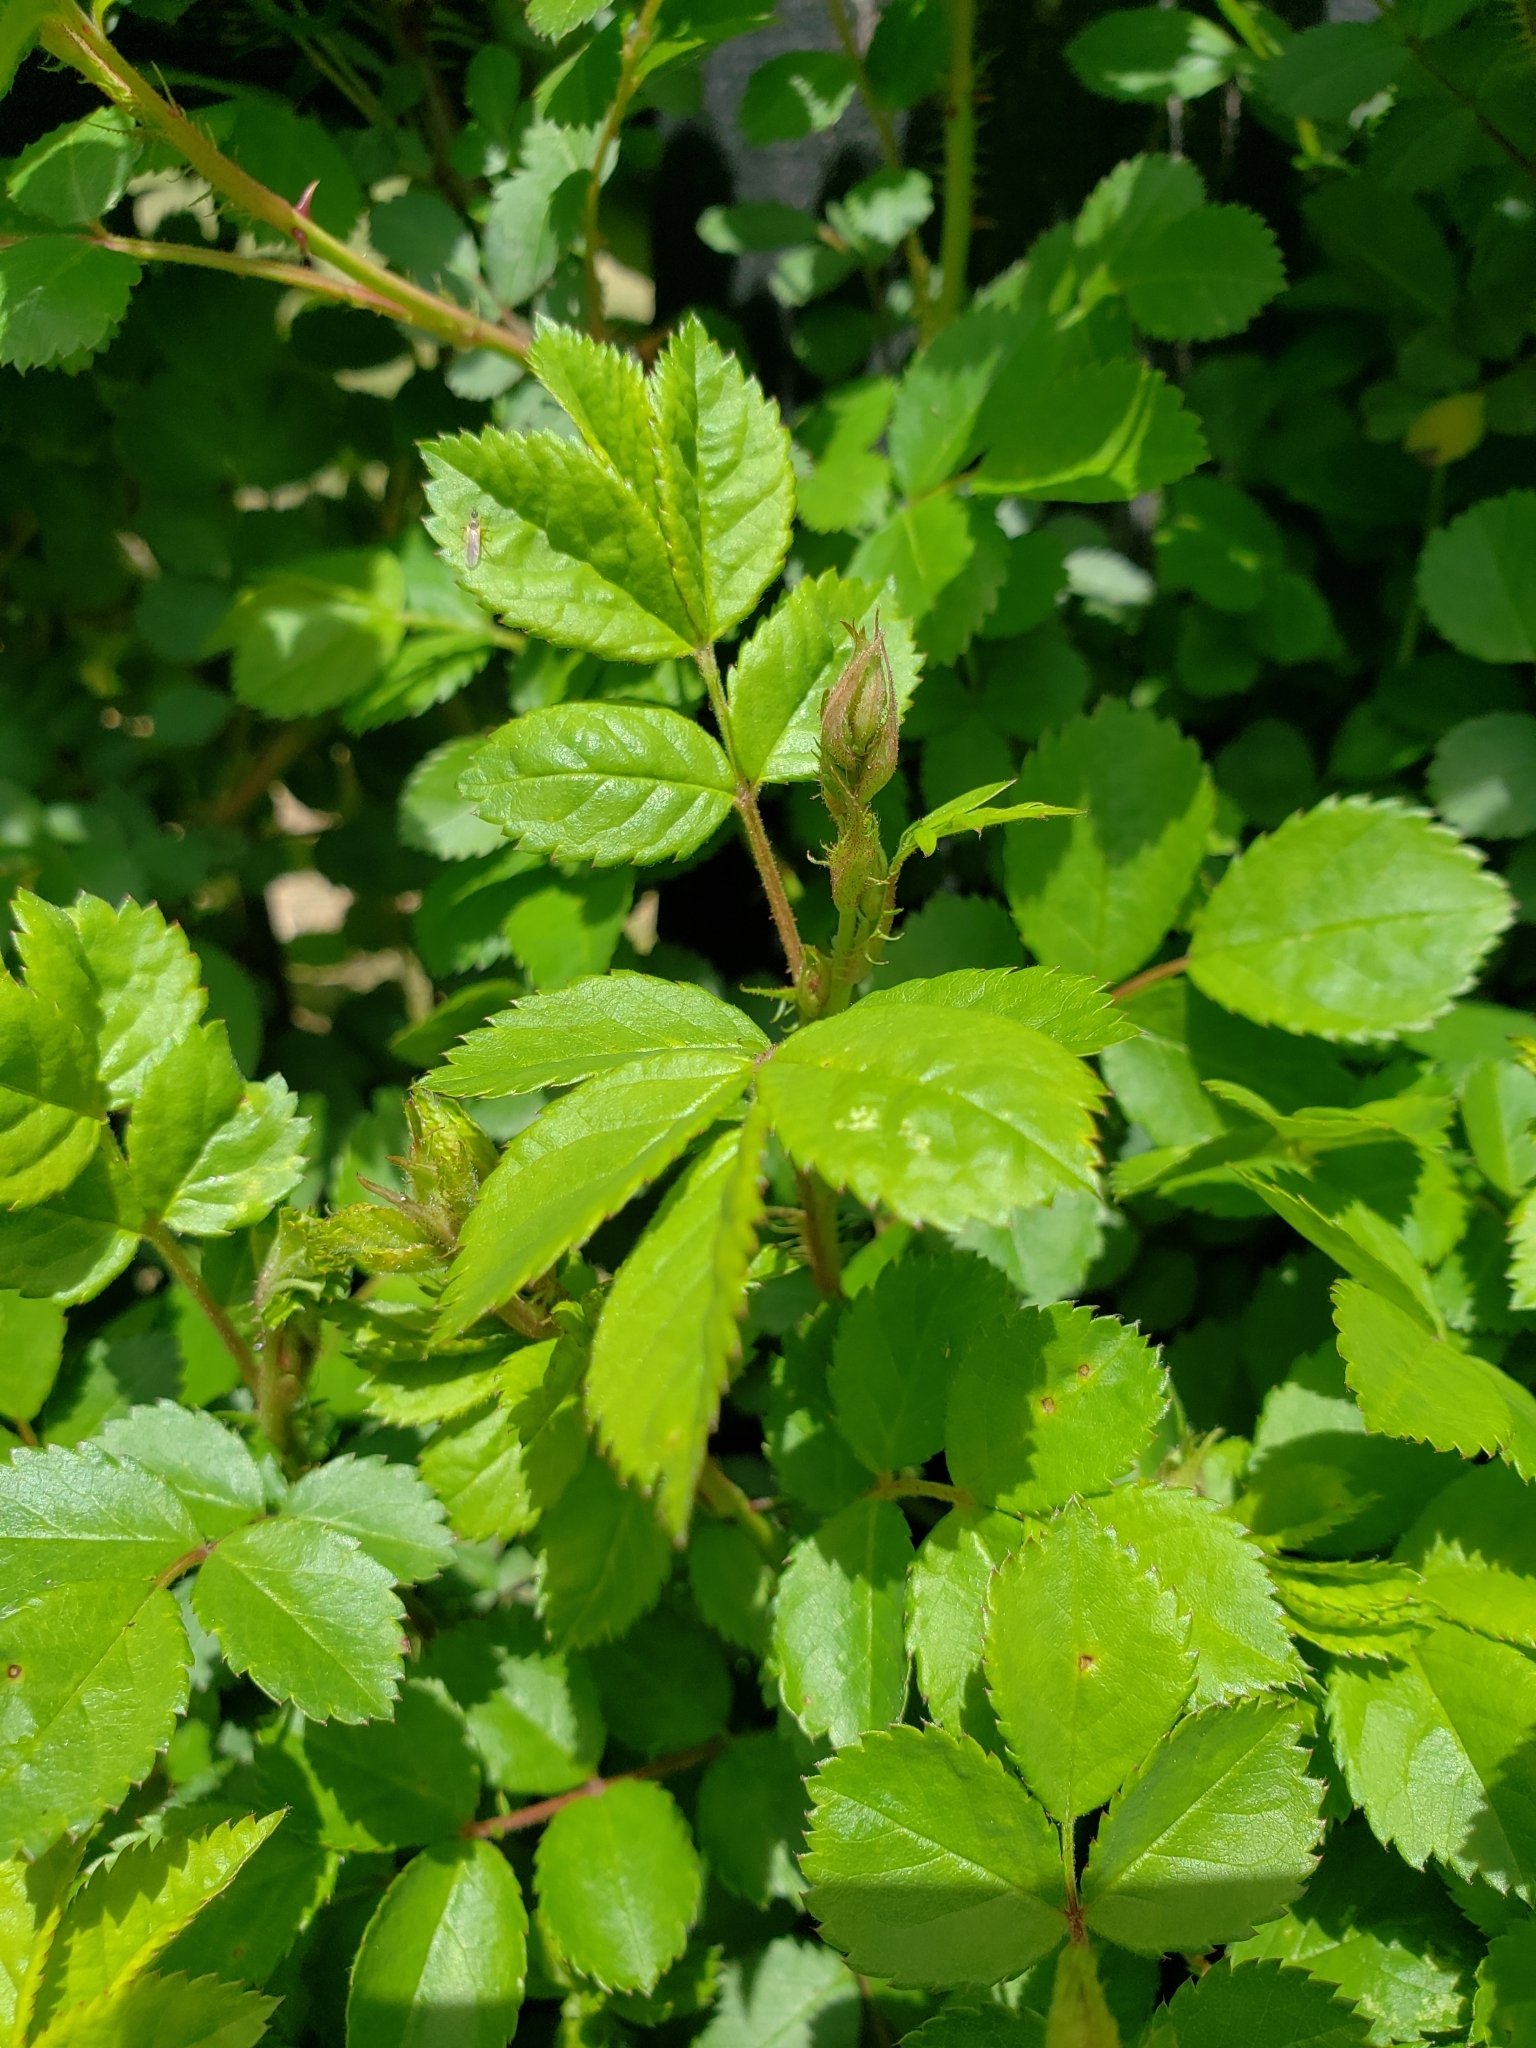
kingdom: Plantae
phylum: Tracheophyta
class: Magnoliopsida
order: Rosales
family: Rosaceae
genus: Rosa
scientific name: Rosa multiflora
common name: Multiflora rose
